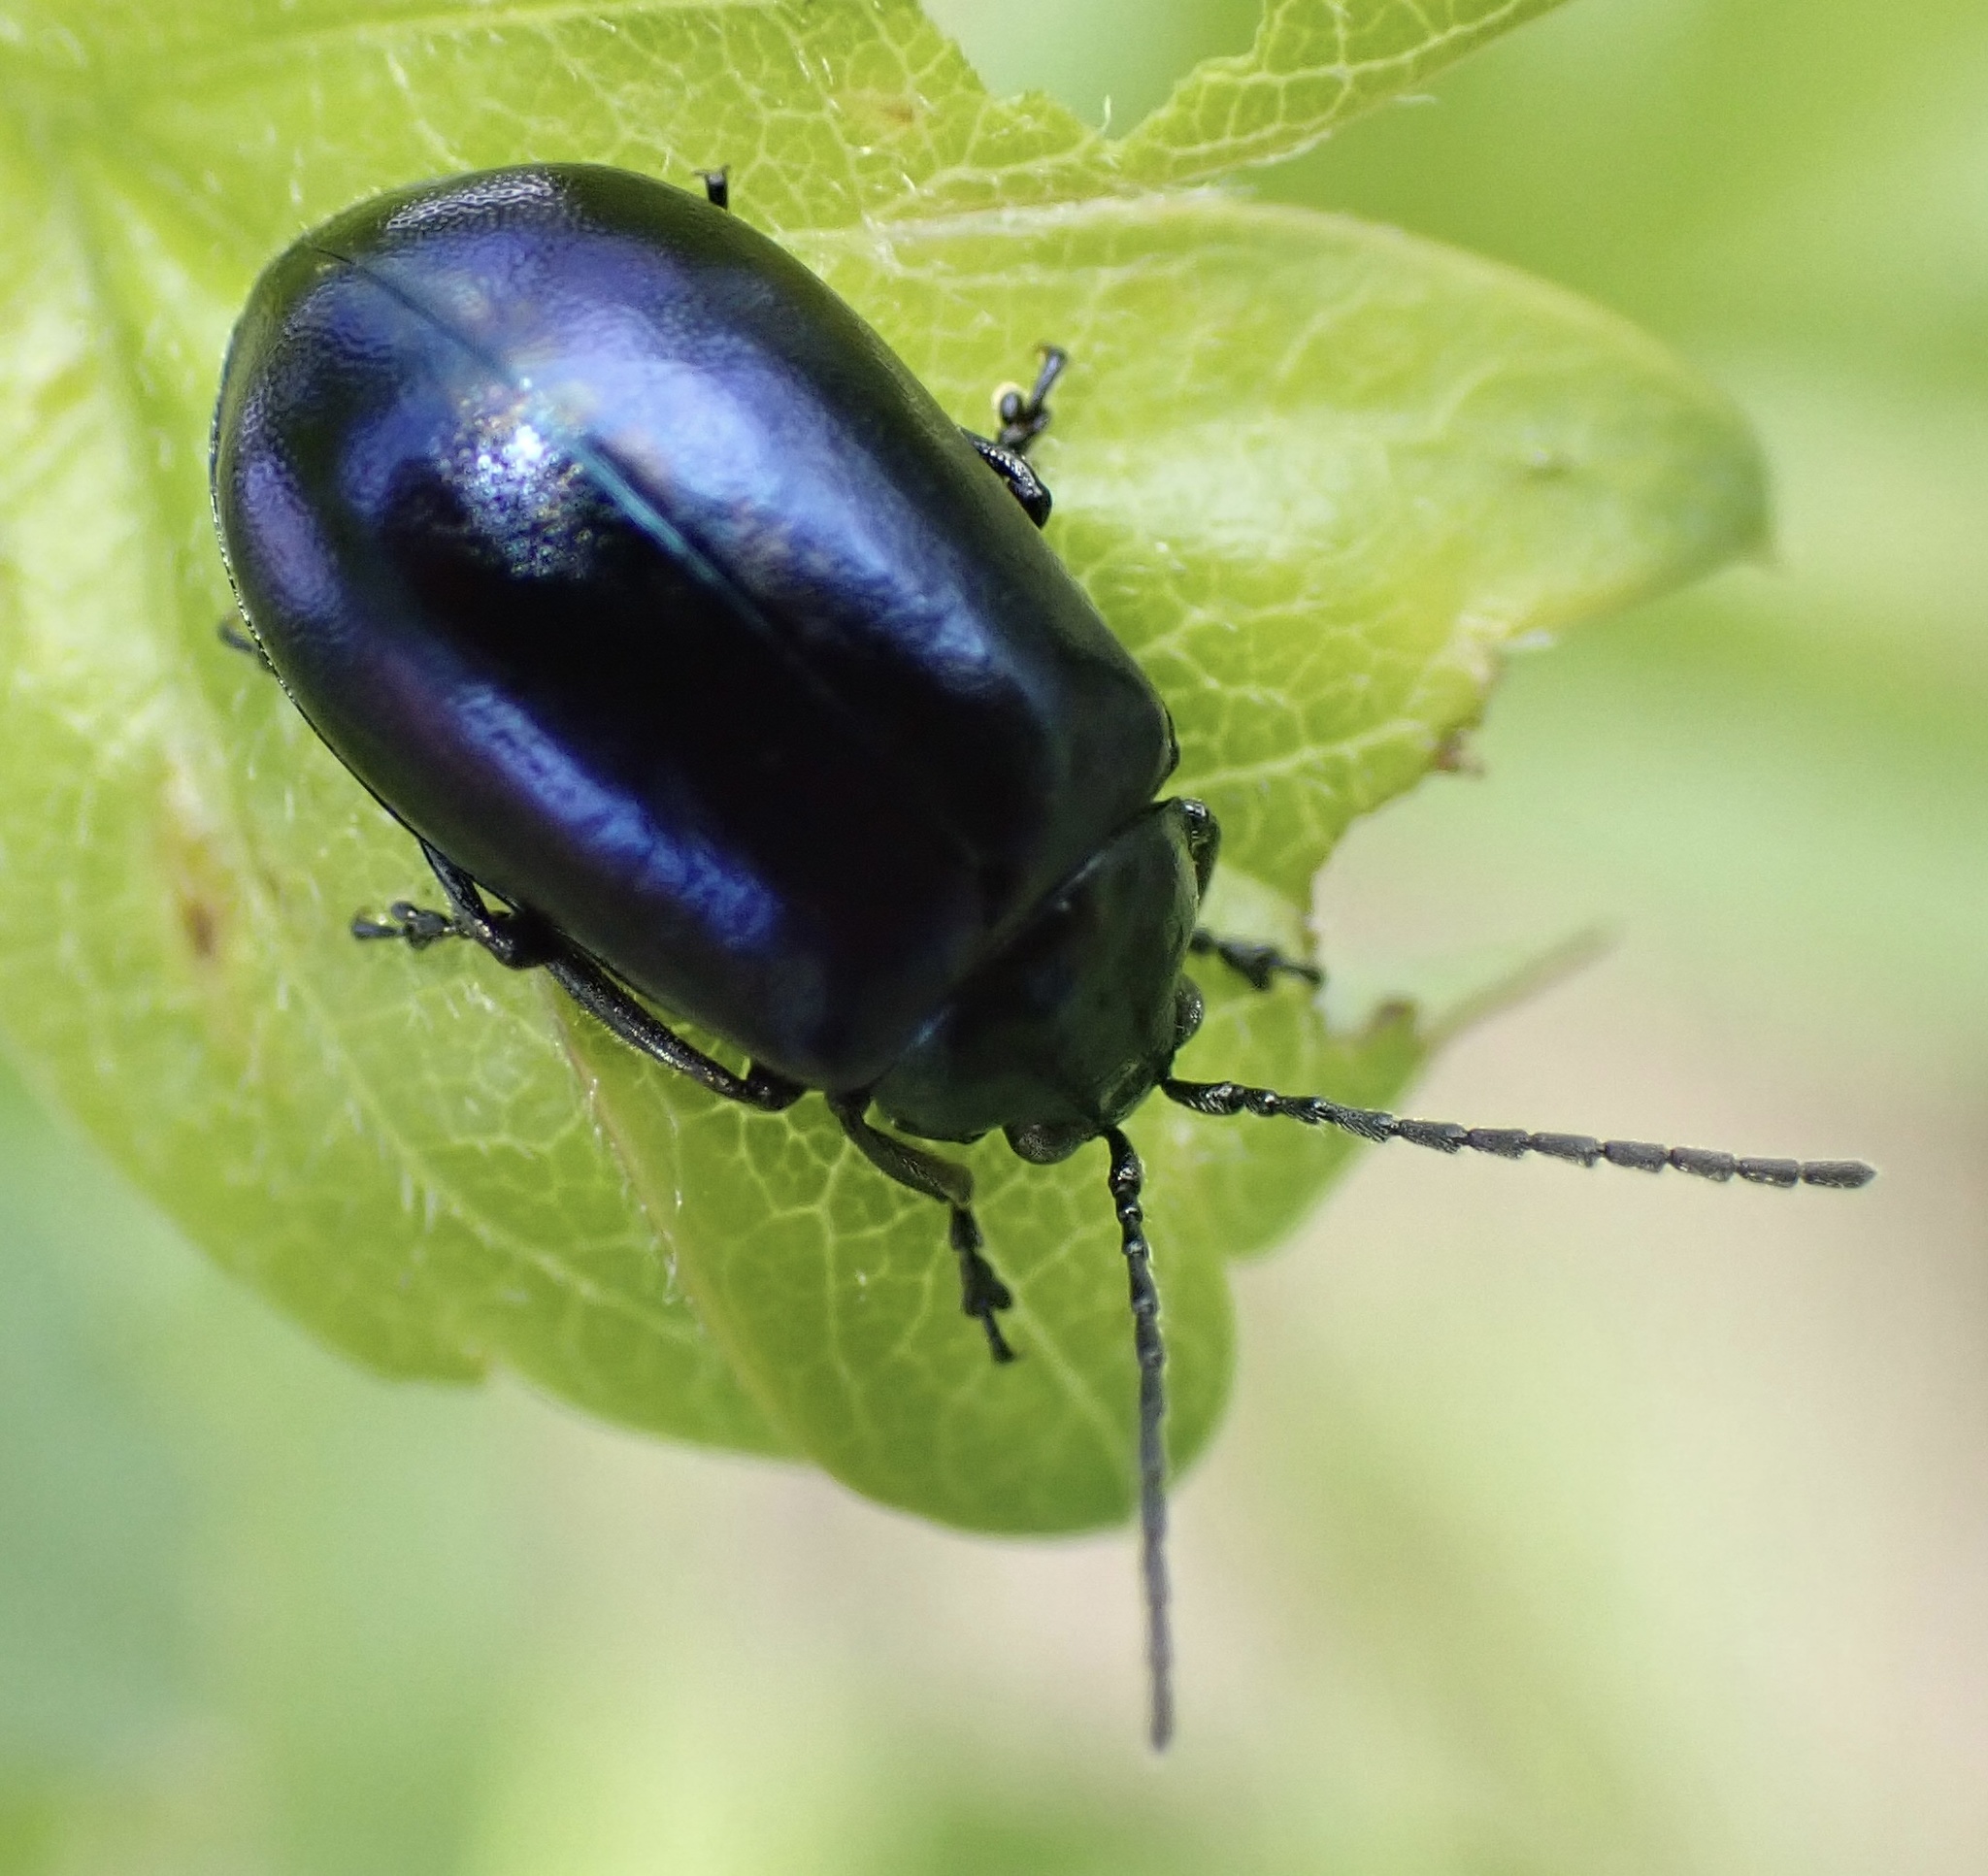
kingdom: Animalia
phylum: Arthropoda
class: Insecta
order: Coleoptera
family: Chrysomelidae
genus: Agelastica
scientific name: Agelastica alni
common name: Alder leaf beetle
